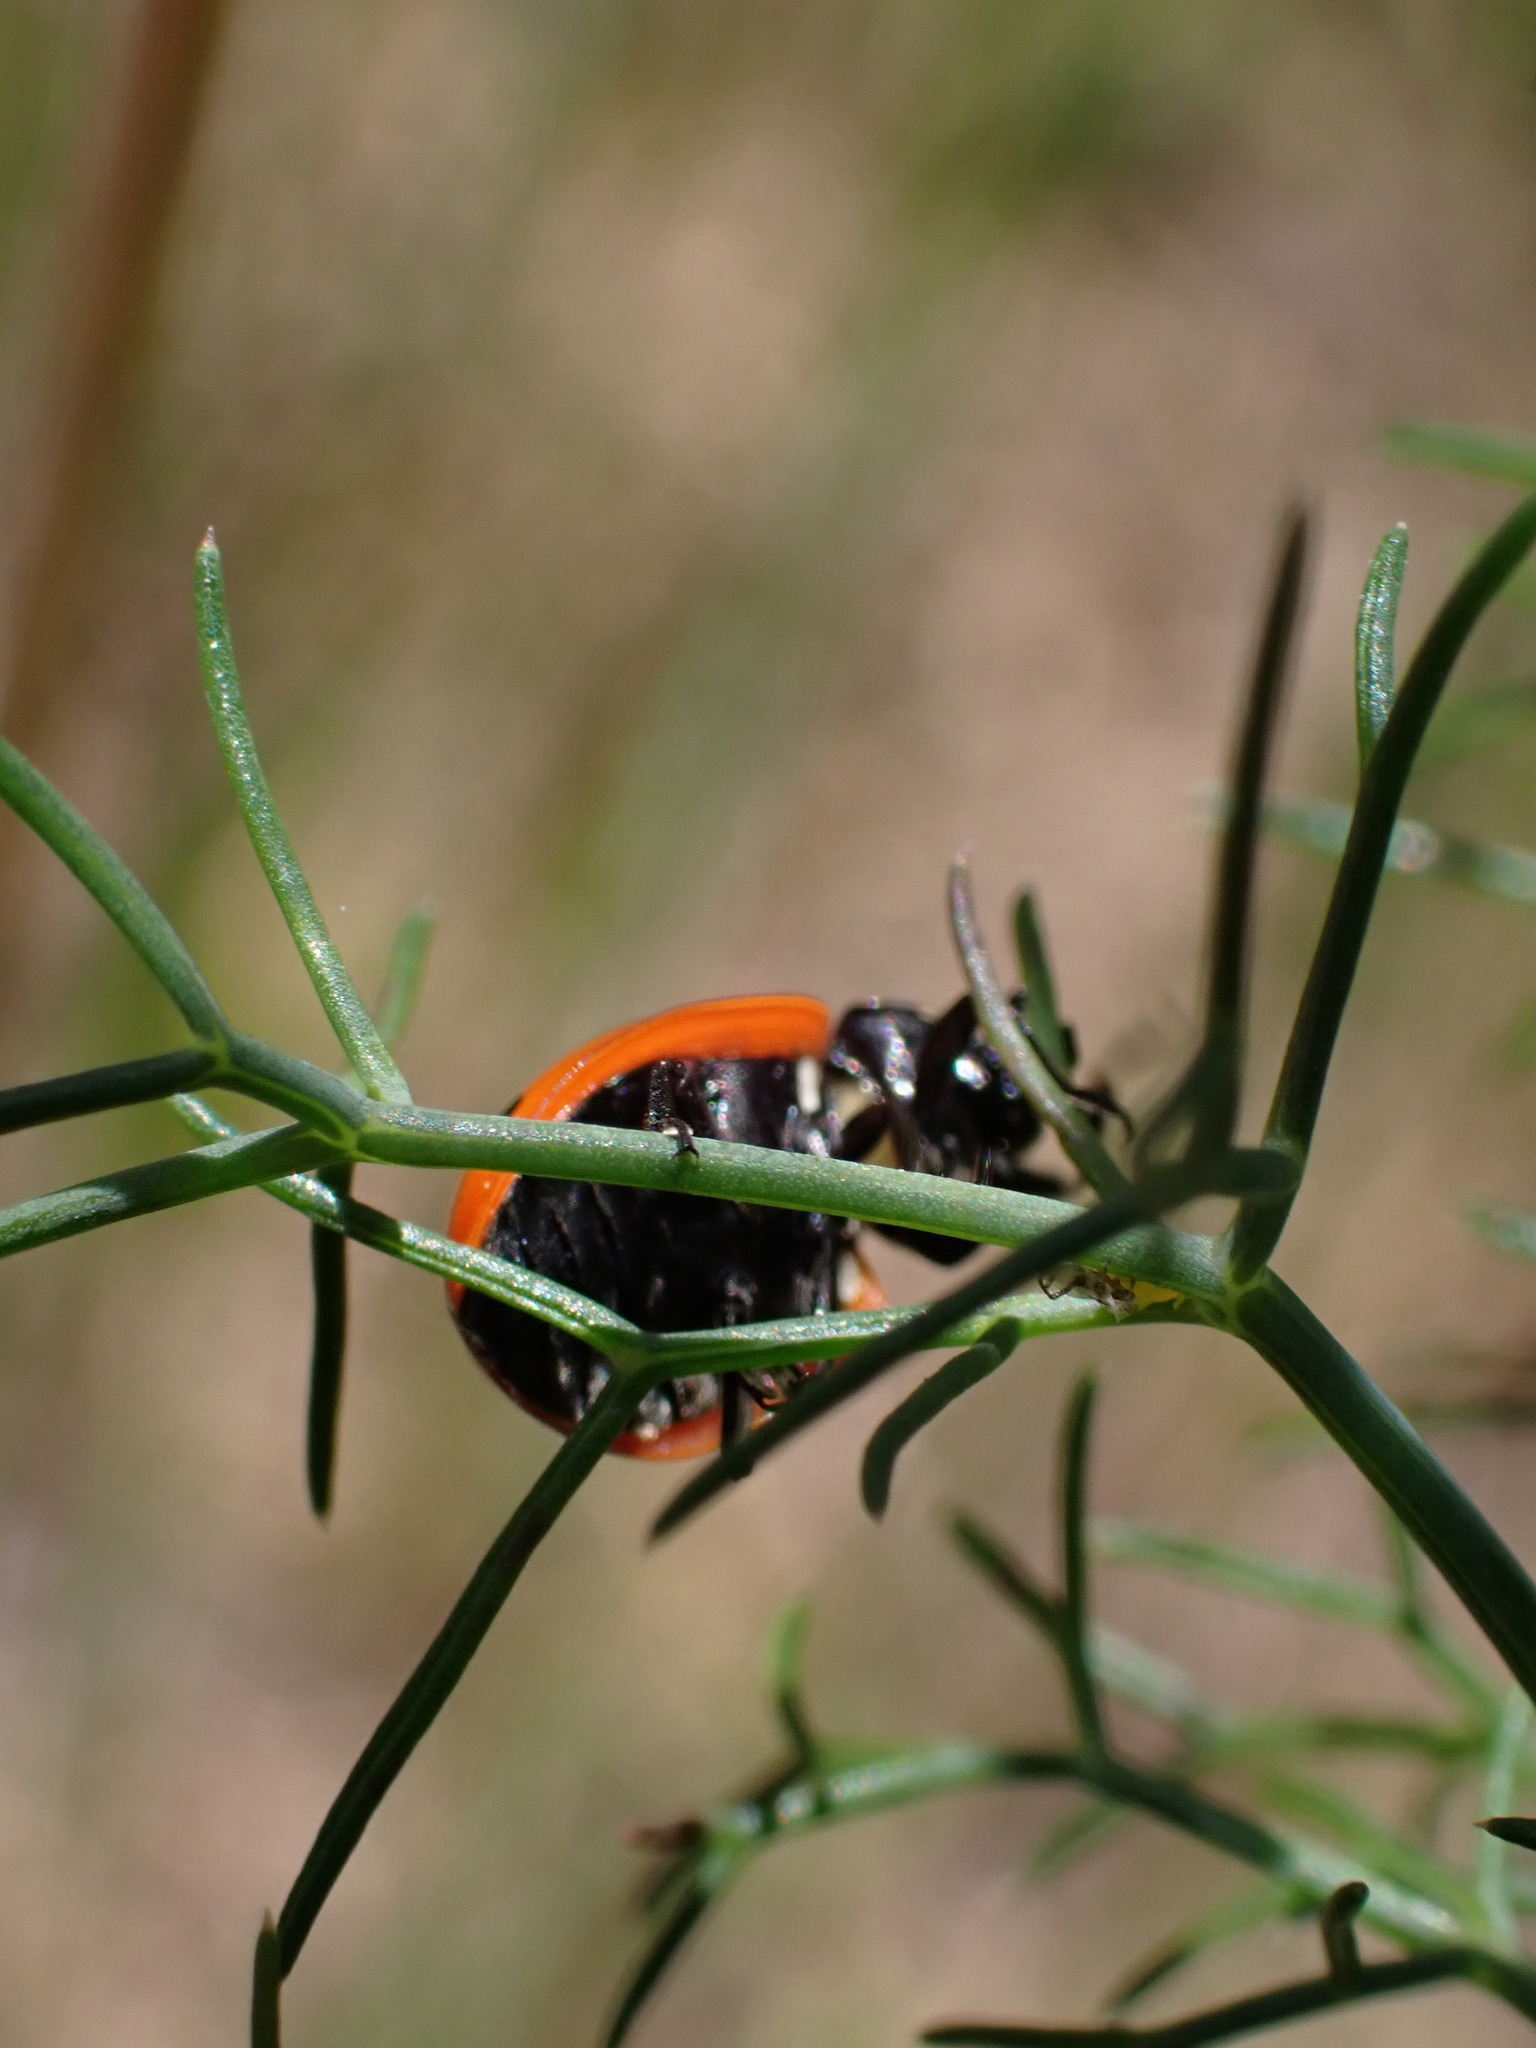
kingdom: Animalia
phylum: Arthropoda
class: Insecta
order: Coleoptera
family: Coccinellidae
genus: Coccinella
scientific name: Coccinella septempunctata
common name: Sevenspotted lady beetle
